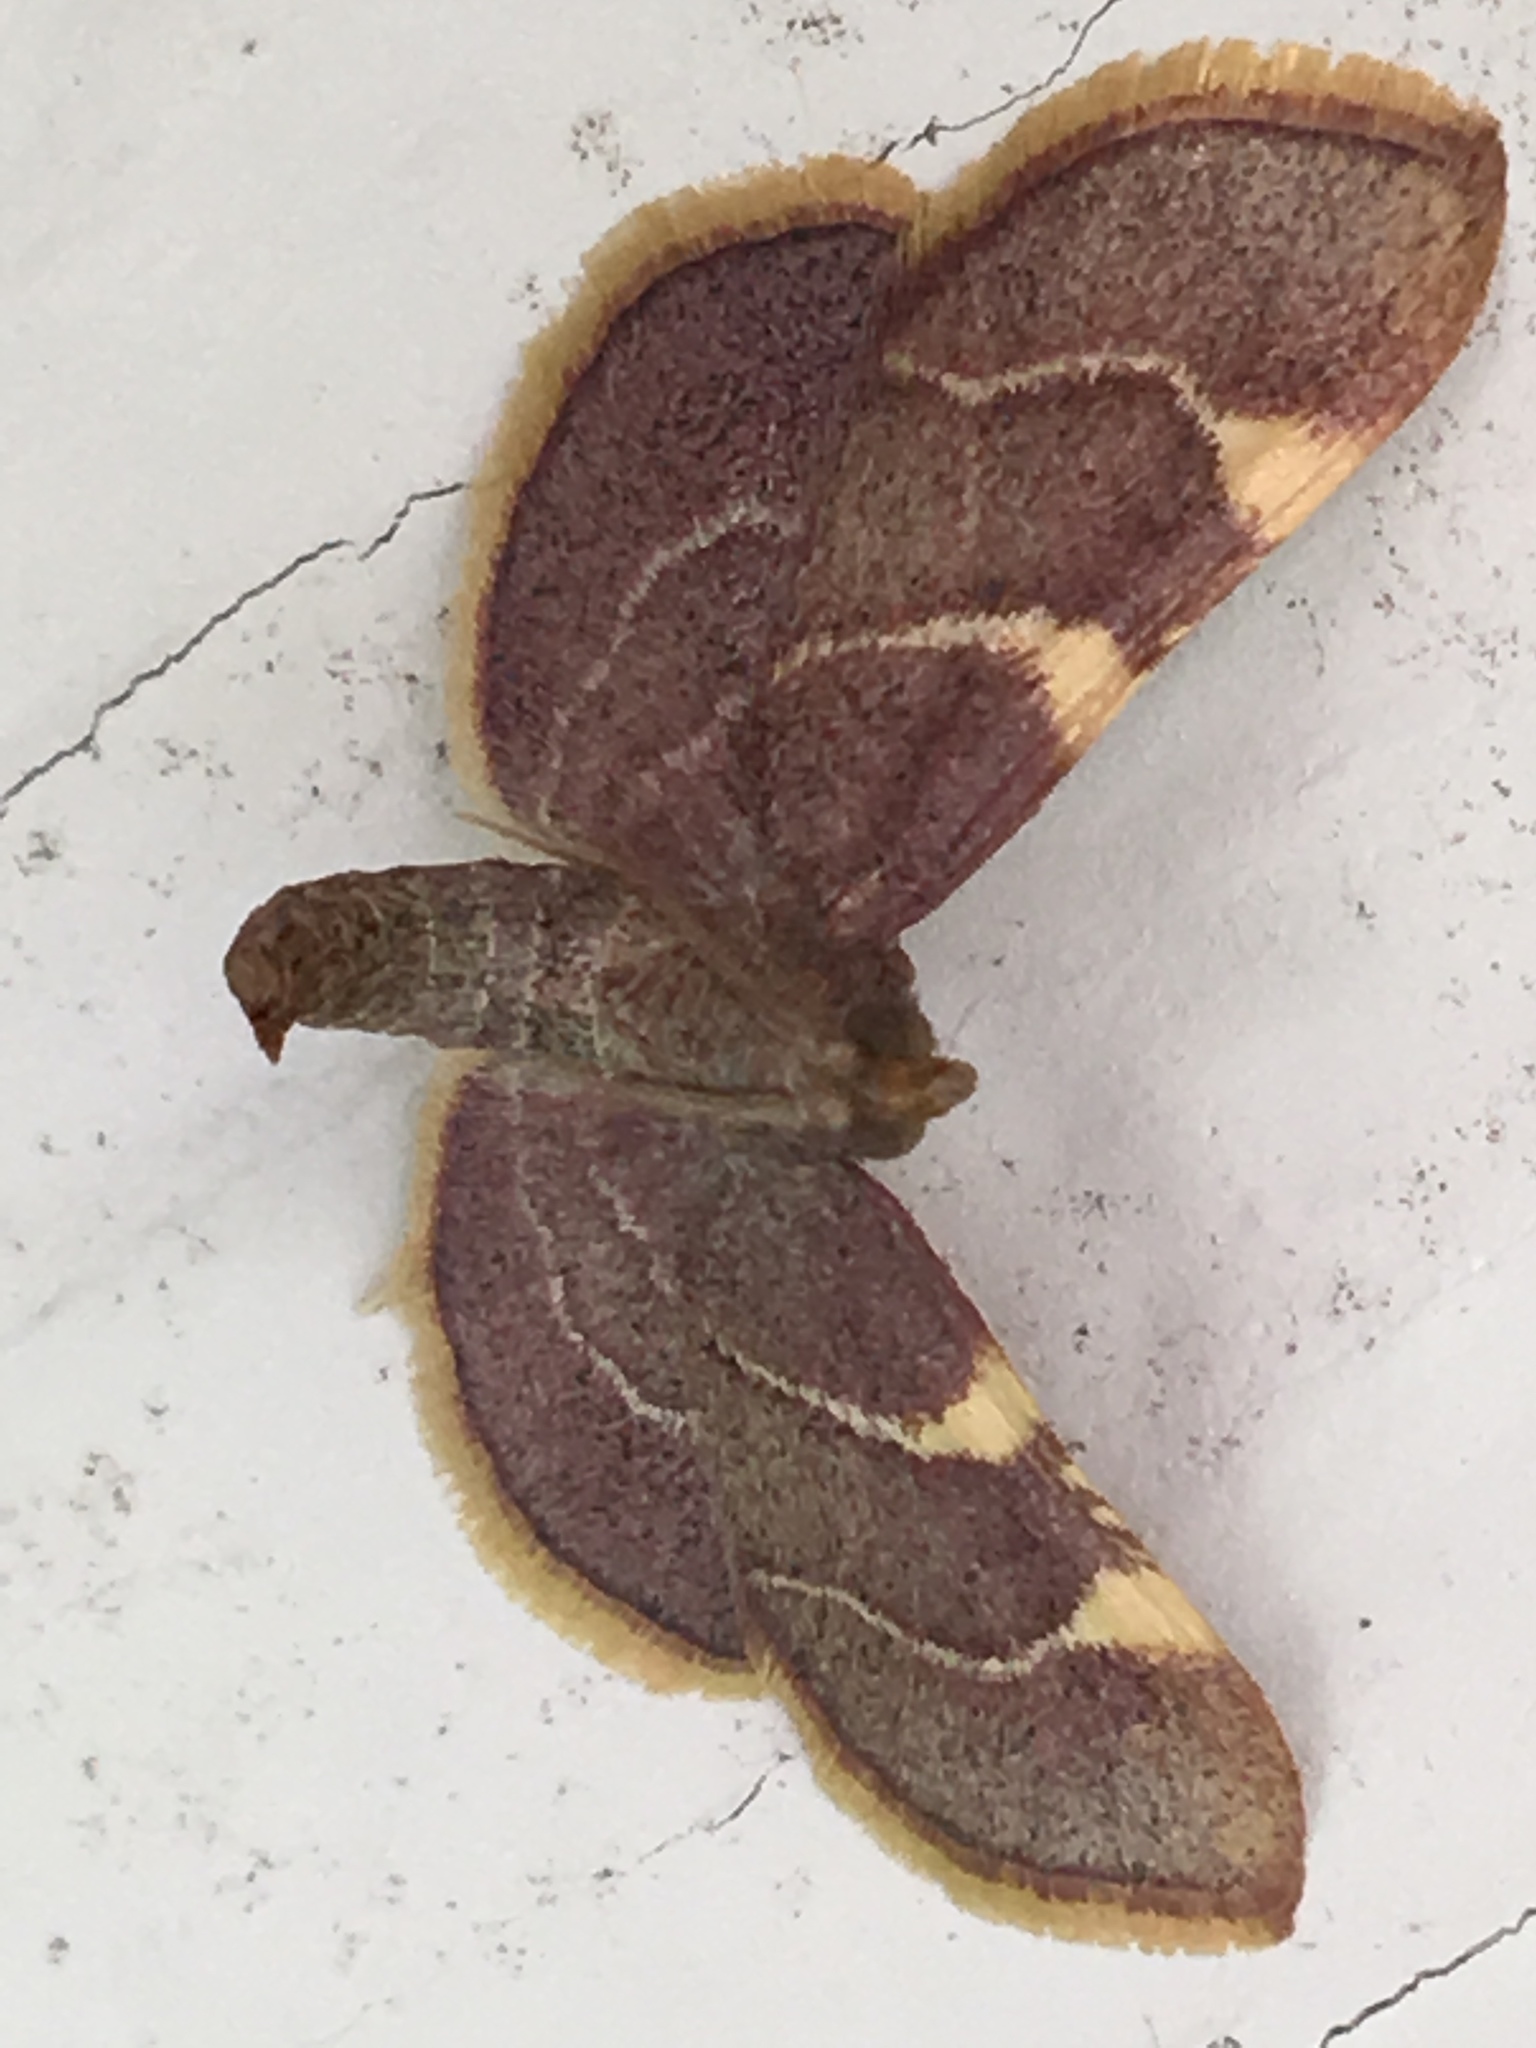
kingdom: Animalia
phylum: Arthropoda
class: Insecta
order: Lepidoptera
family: Pyralidae
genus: Hypsopygia
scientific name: Hypsopygia olinalis
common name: Yellow-fringed dolichomia moth
